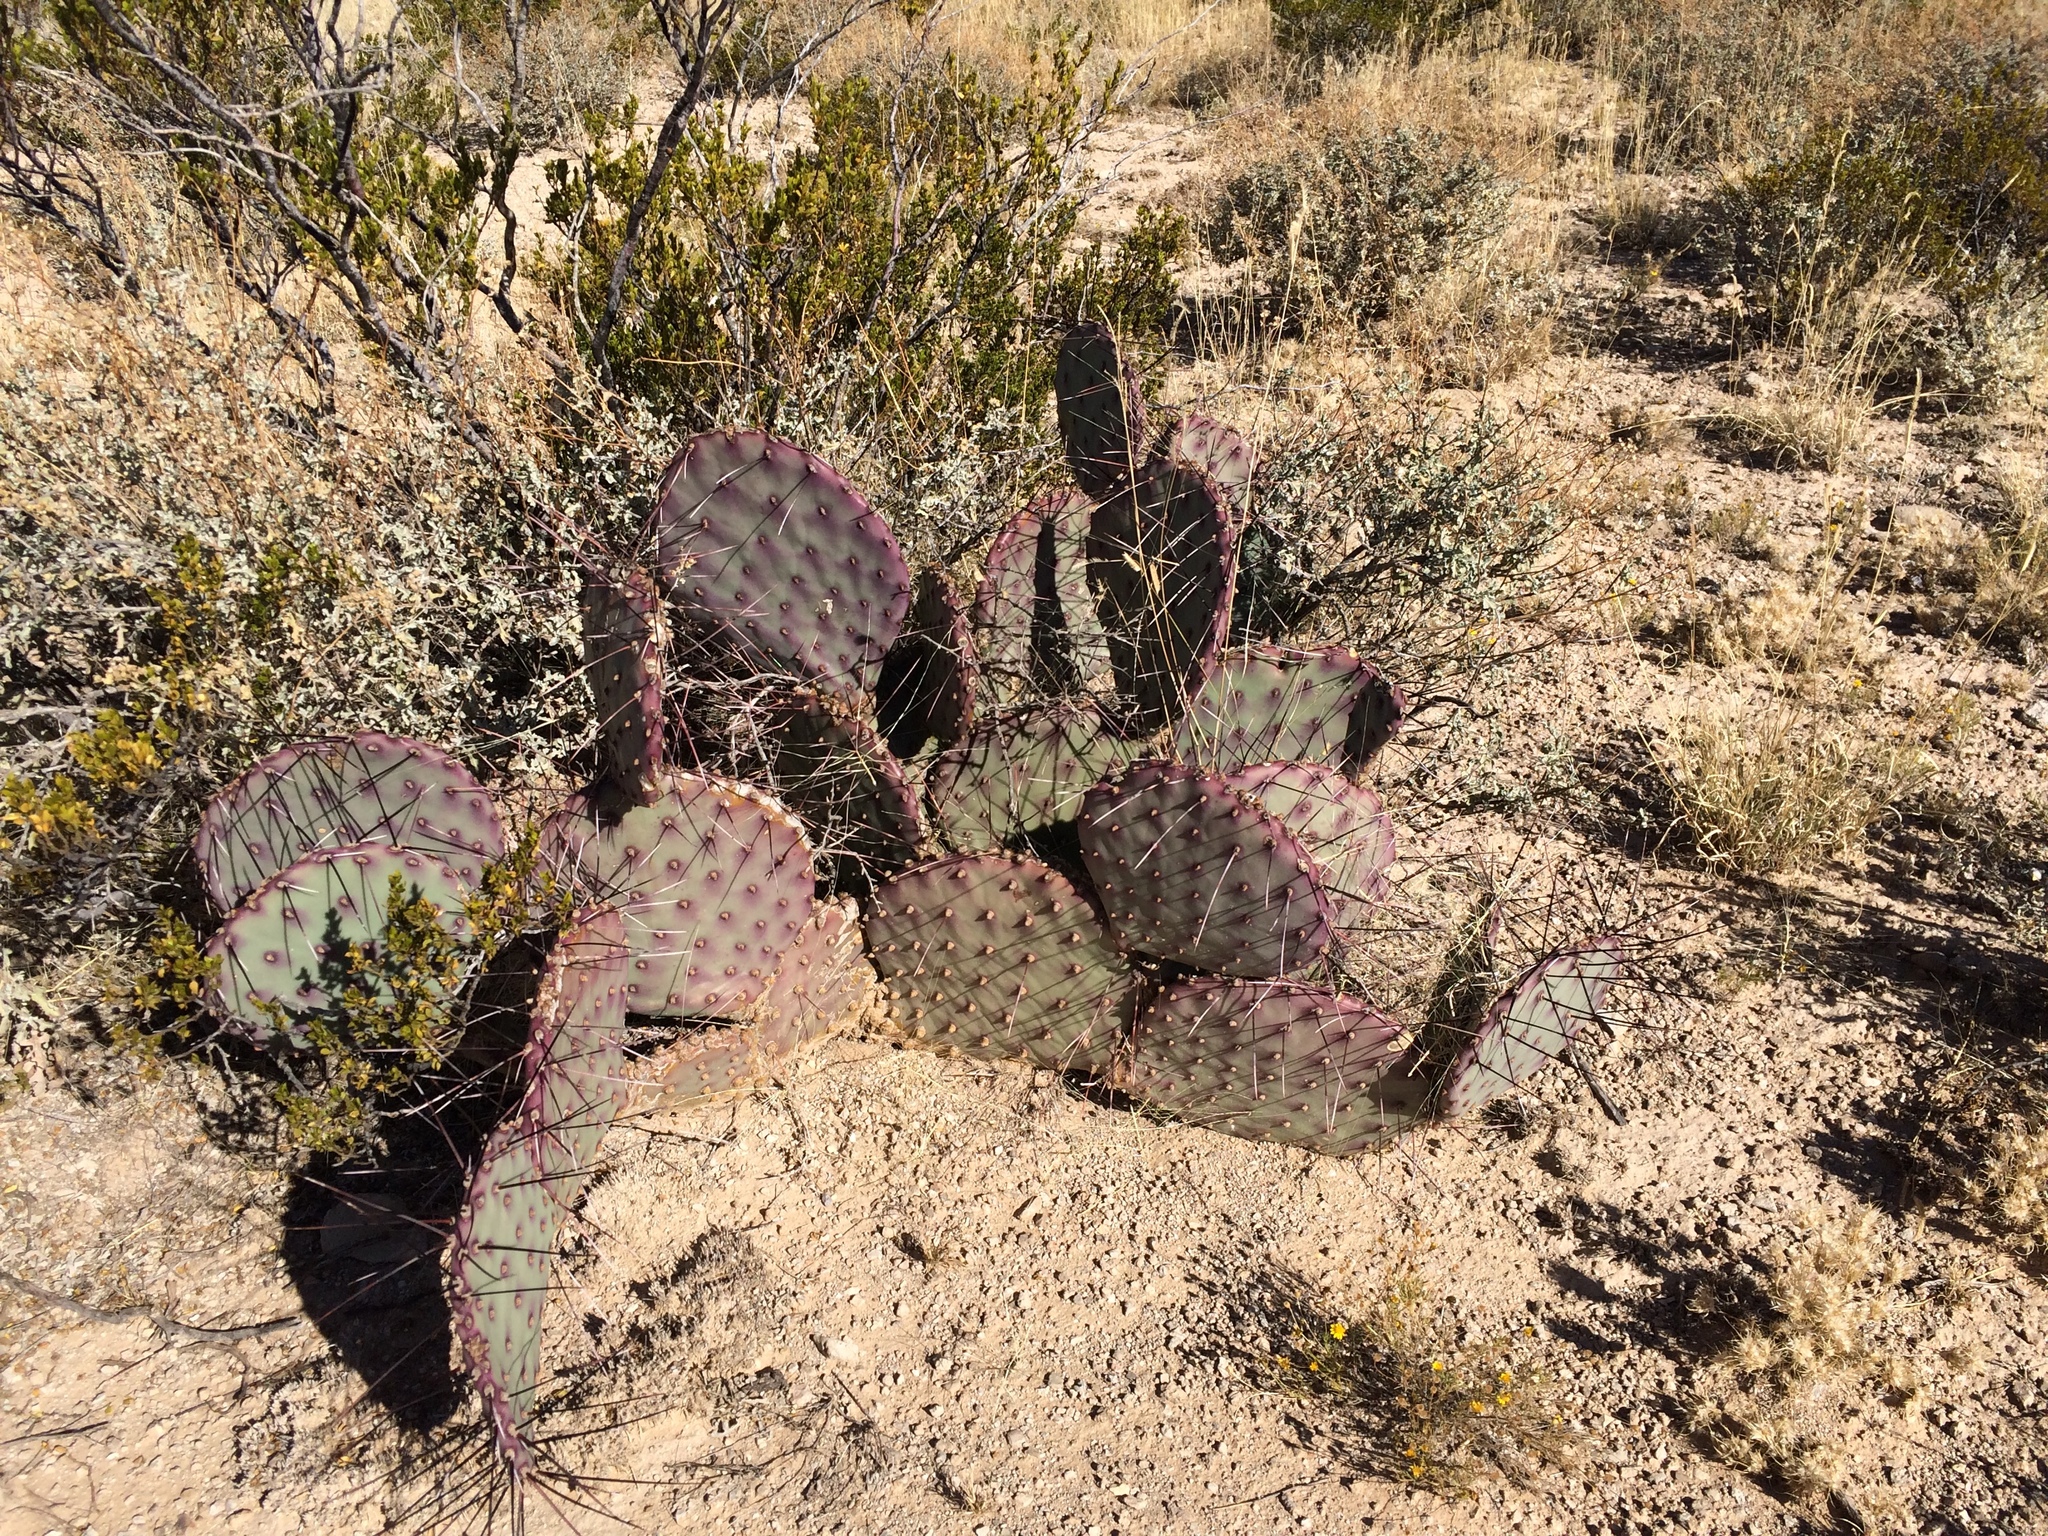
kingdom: Plantae
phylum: Tracheophyta
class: Magnoliopsida
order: Caryophyllales
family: Cactaceae
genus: Opuntia
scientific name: Opuntia macrocentra
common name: Purple prickly-pear
